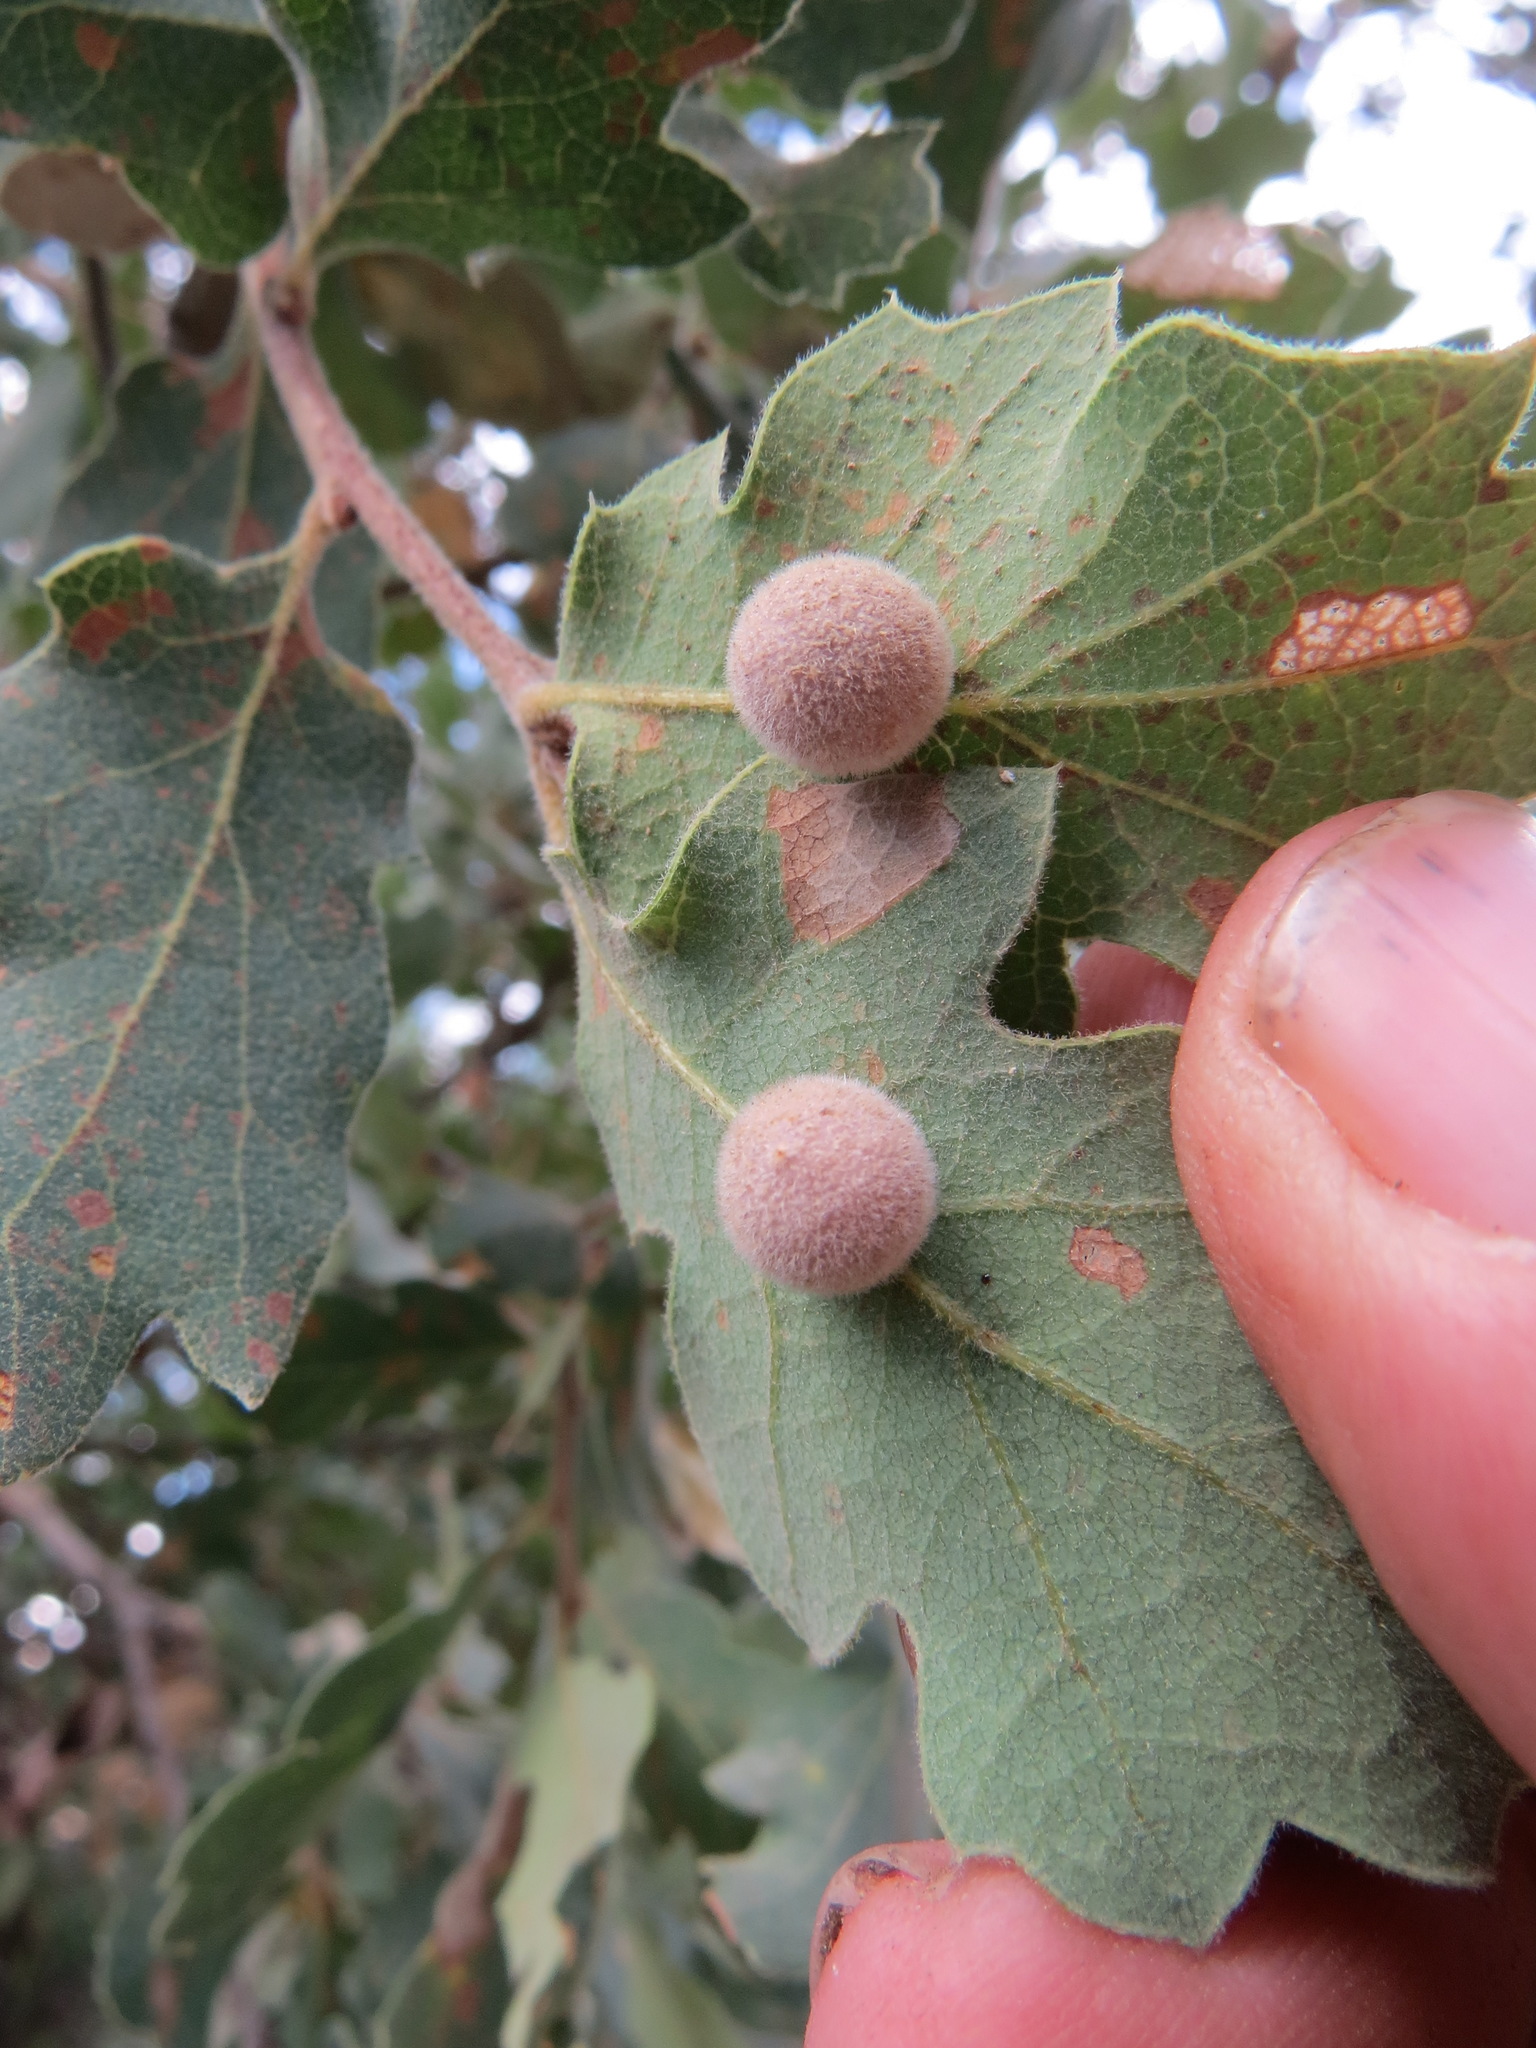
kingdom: Animalia
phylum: Arthropoda
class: Insecta
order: Hymenoptera
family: Cynipidae
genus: Cynips
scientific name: Cynips
